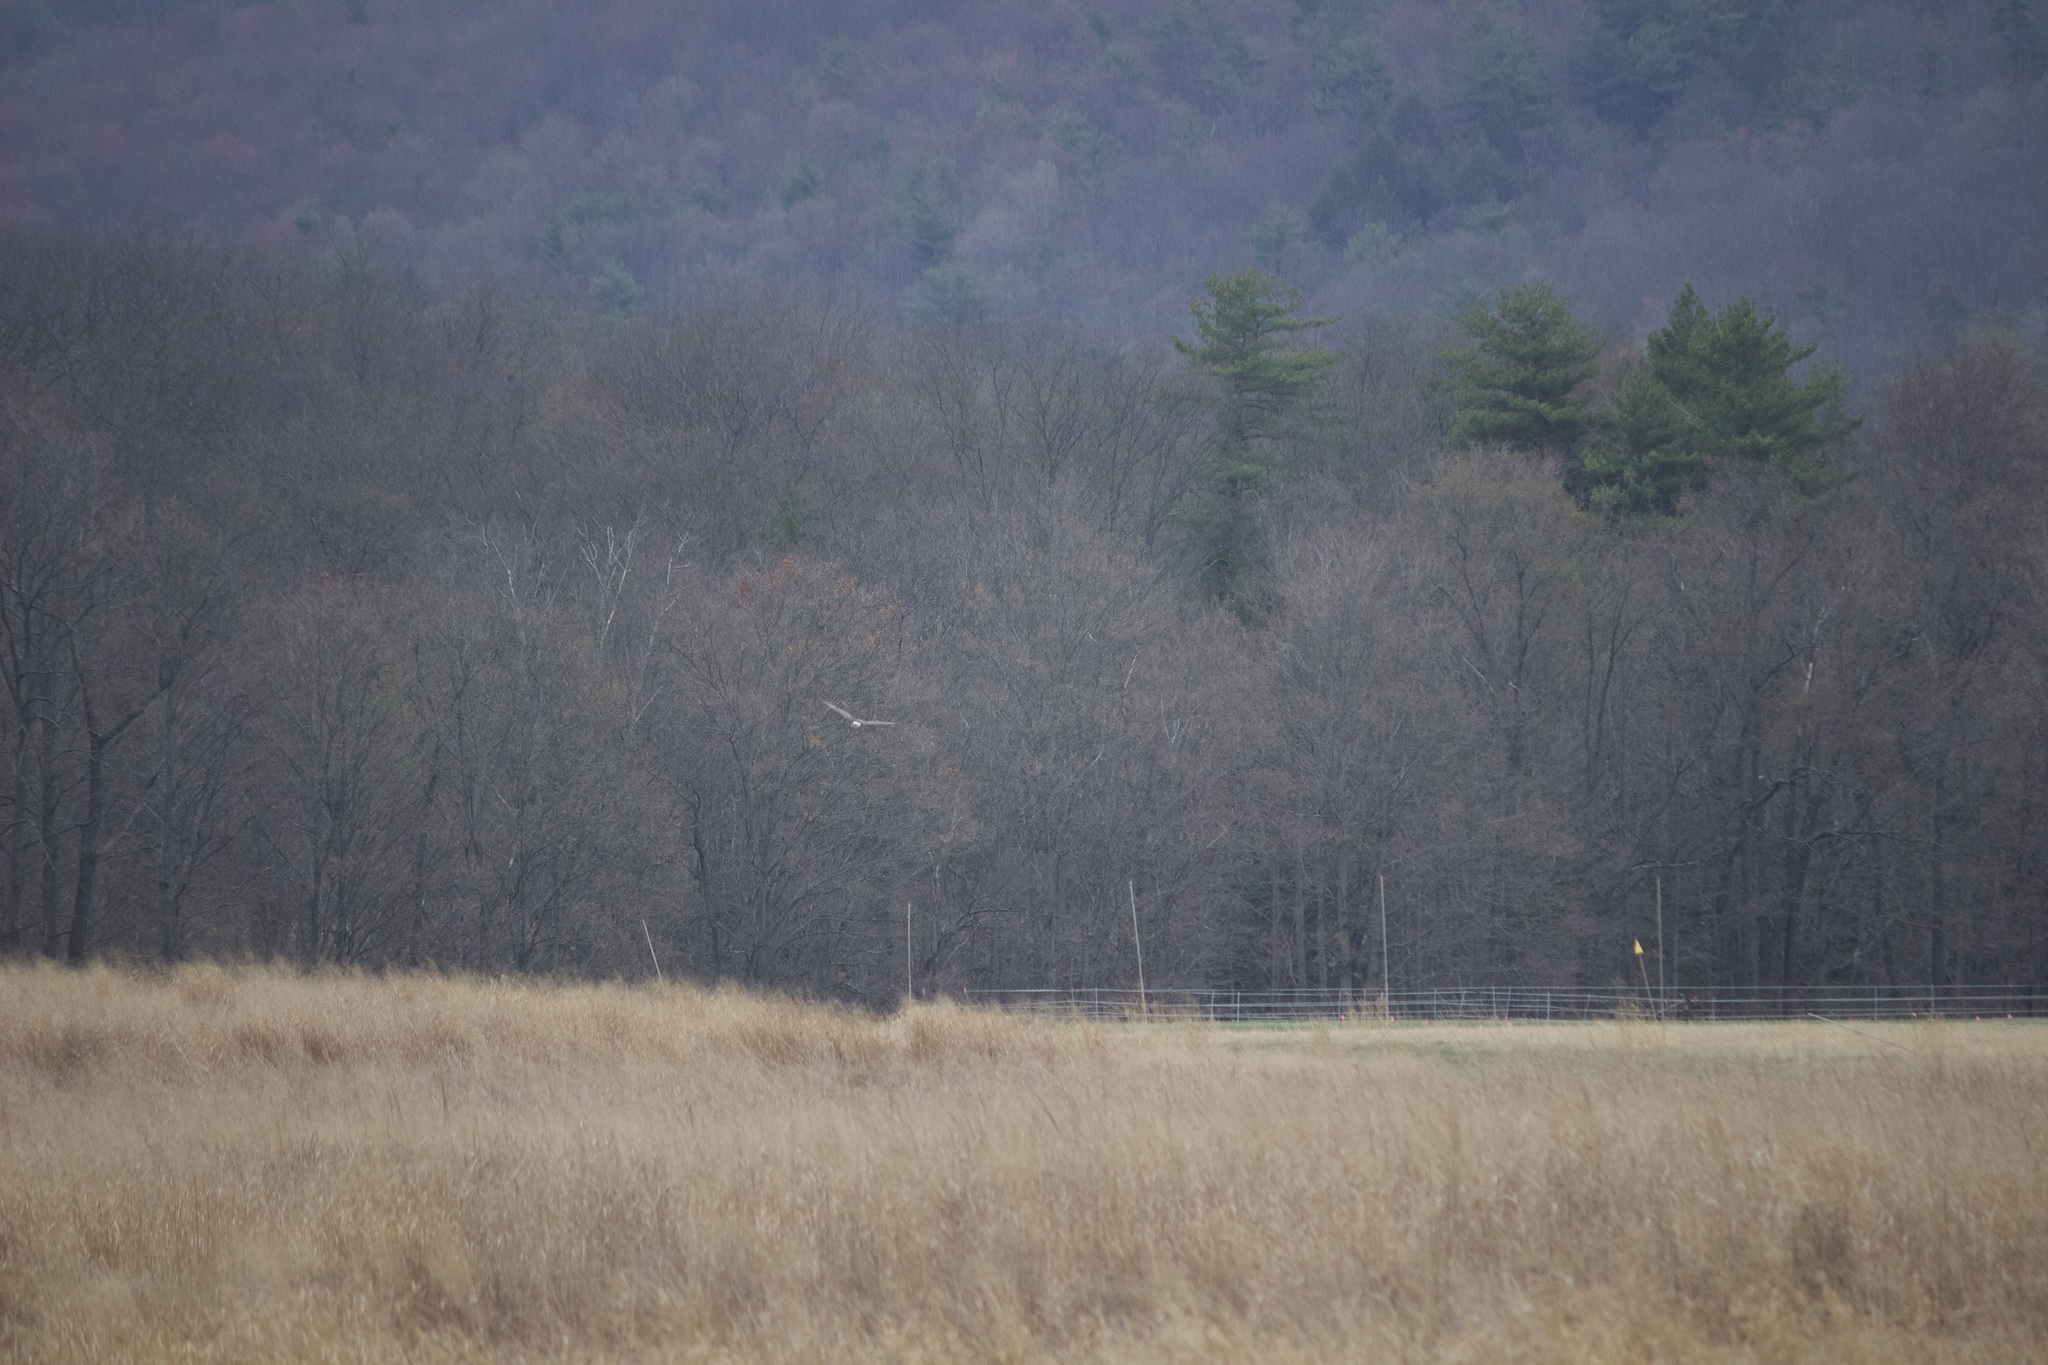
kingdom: Animalia
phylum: Chordata
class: Aves
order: Accipitriformes
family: Accipitridae
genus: Circus
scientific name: Circus cyaneus
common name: Hen harrier
